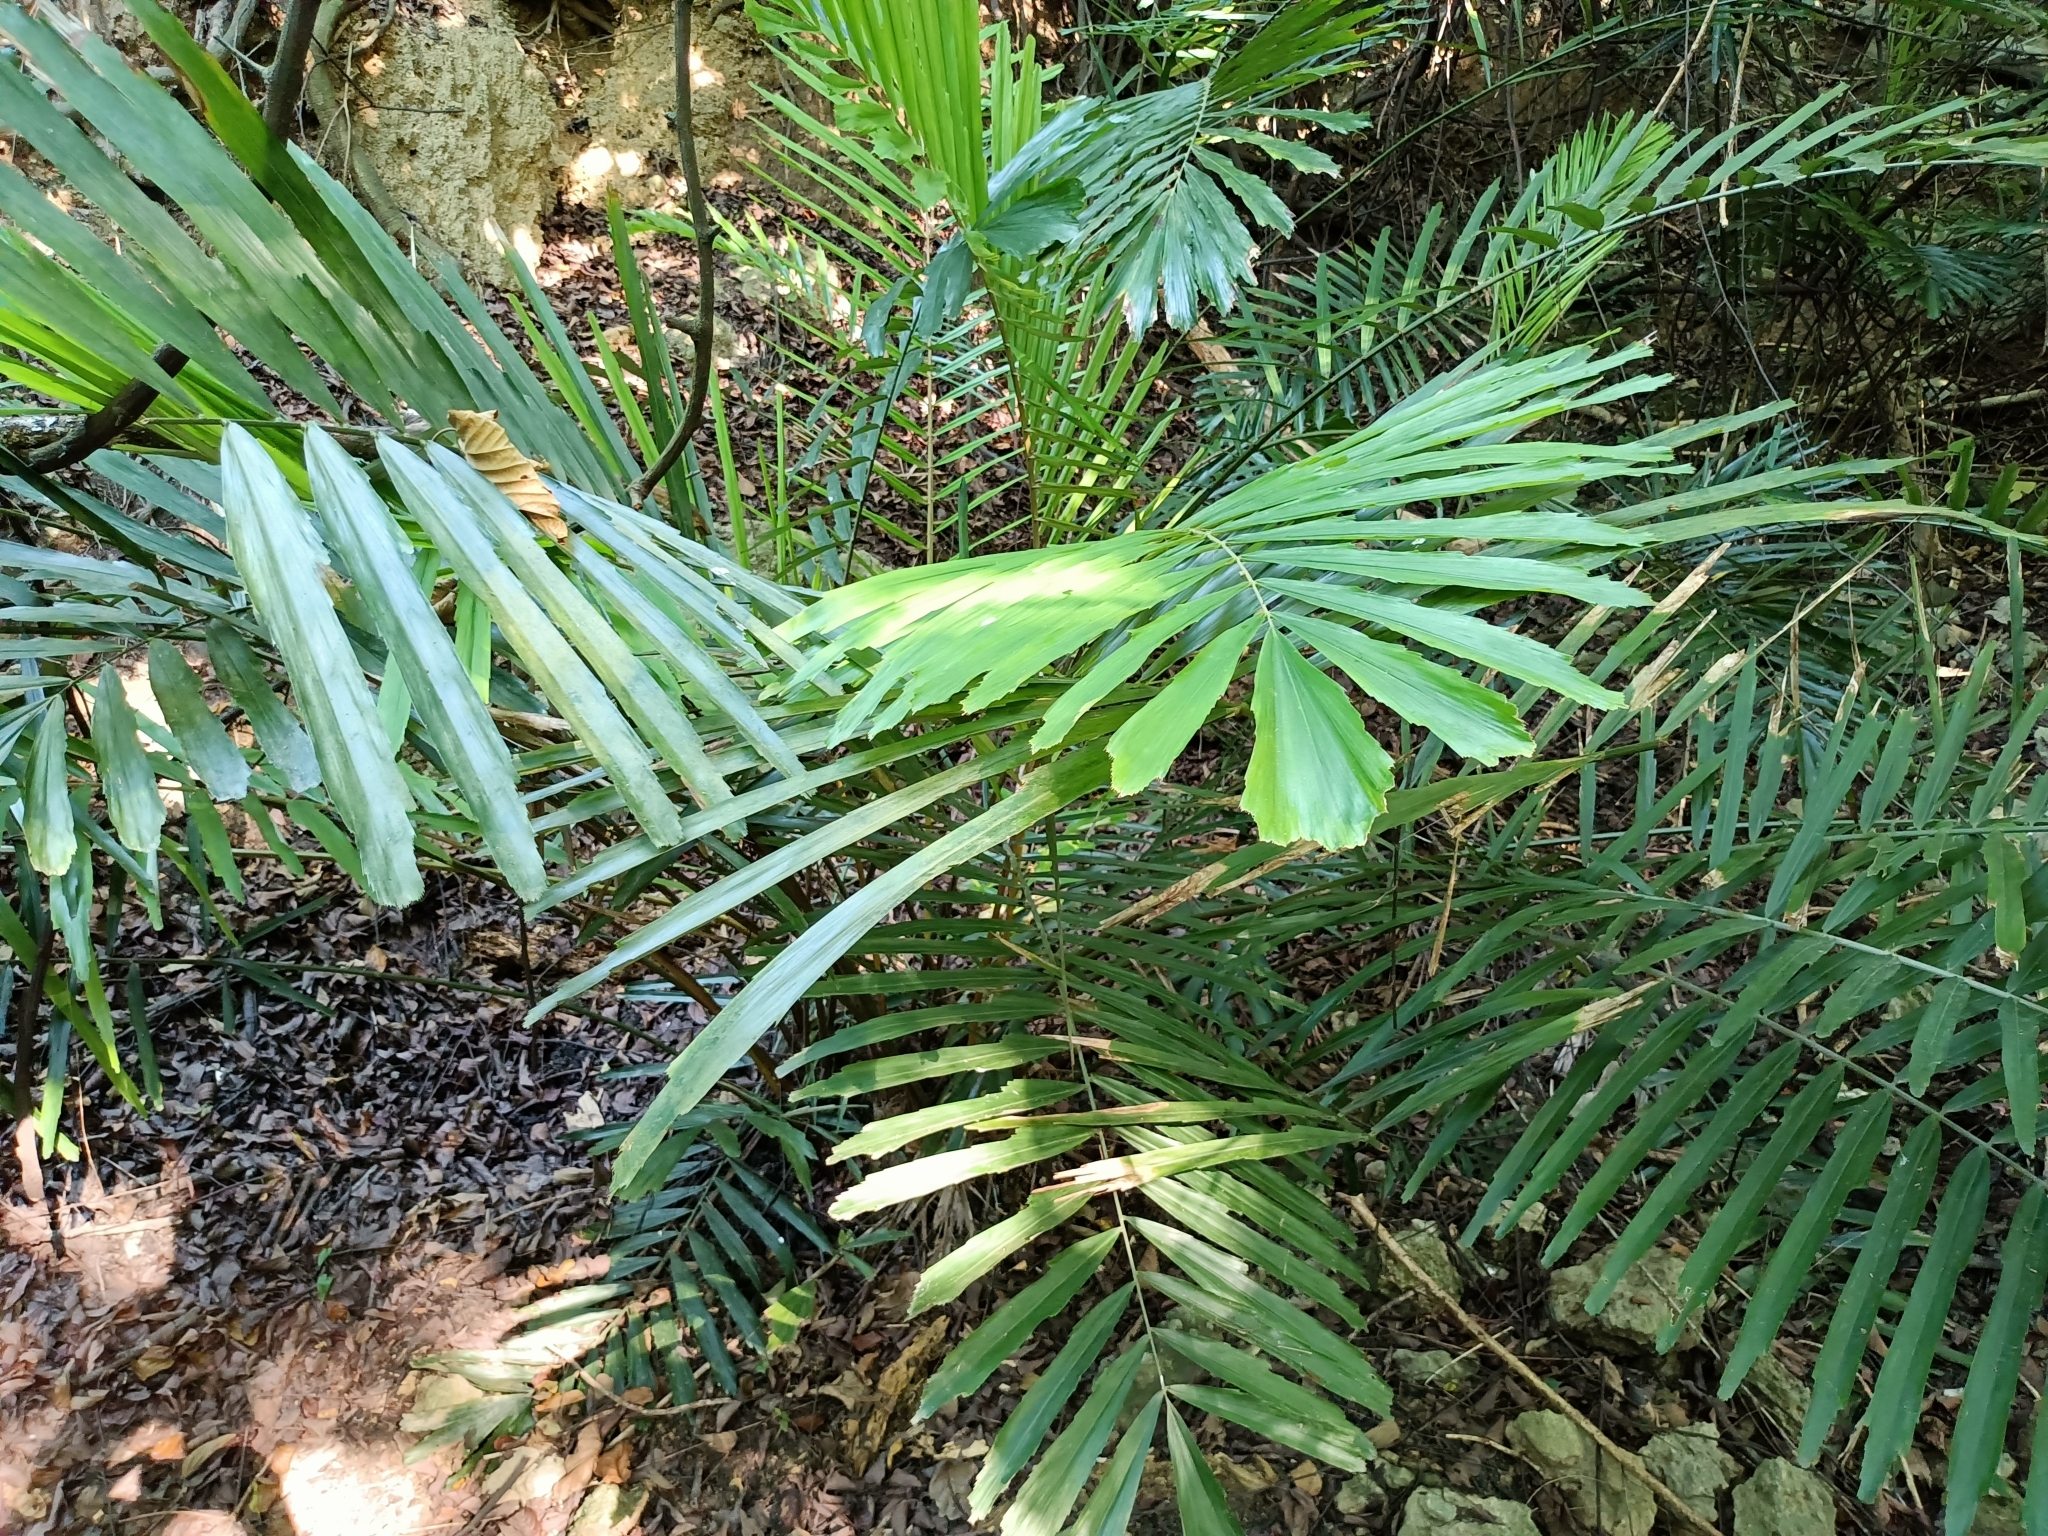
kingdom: Plantae
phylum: Tracheophyta
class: Liliopsida
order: Arecales
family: Arecaceae
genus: Arenga
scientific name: Arenga engleri
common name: Formosan sugar palm
